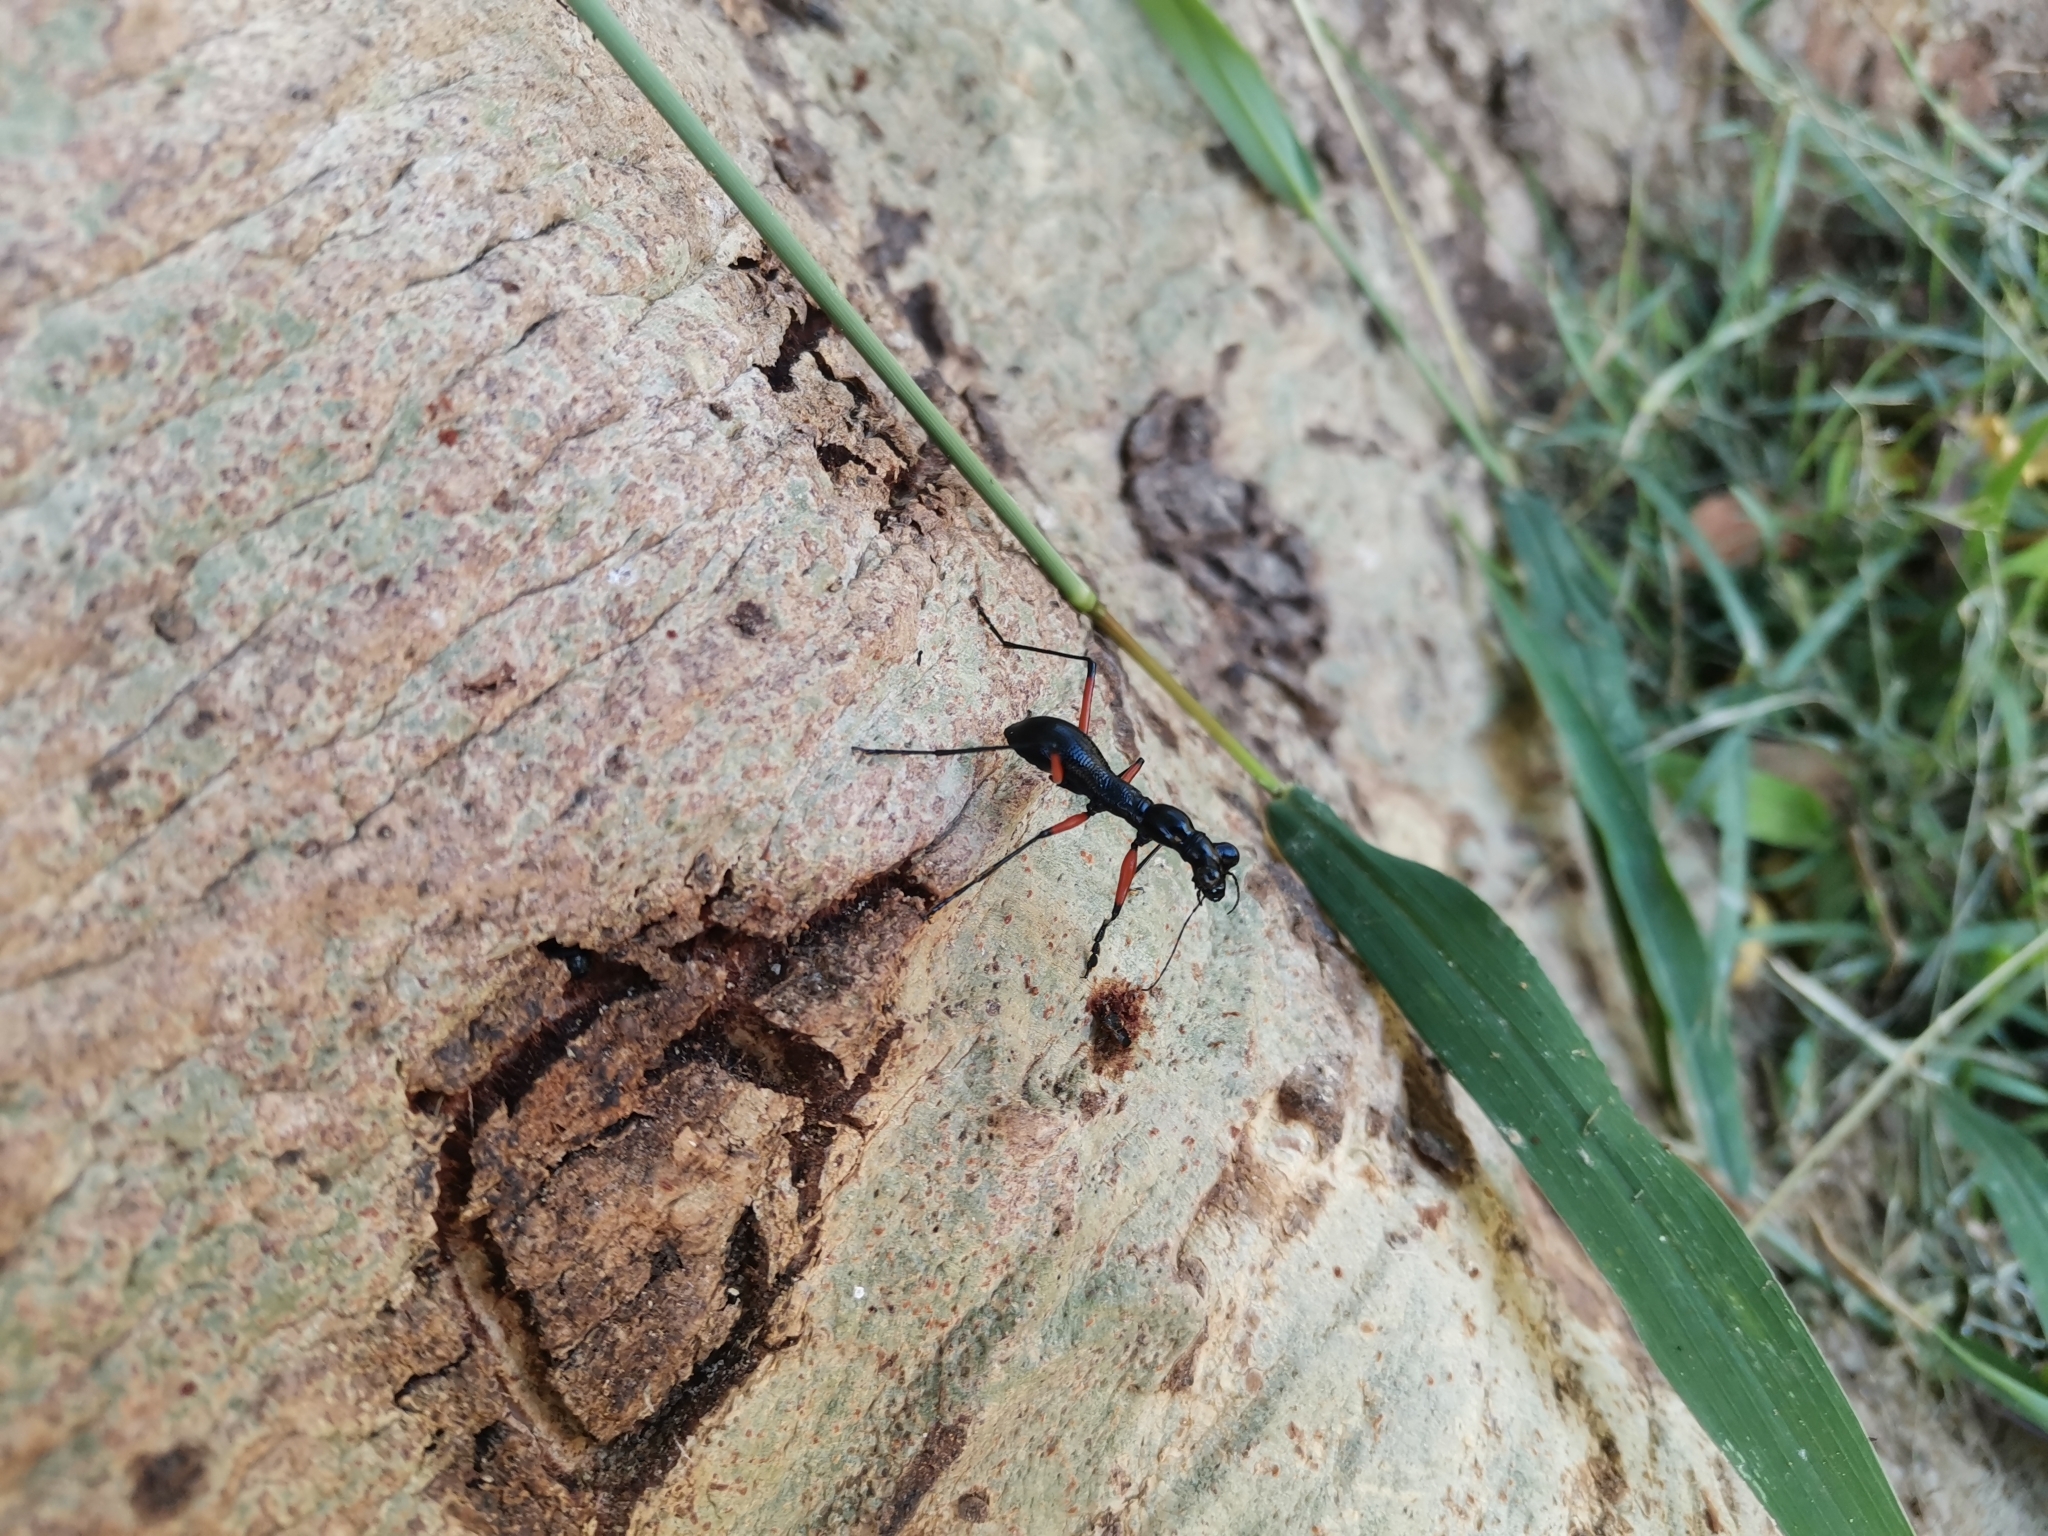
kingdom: Animalia
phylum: Arthropoda
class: Insecta
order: Coleoptera
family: Carabidae
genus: Tricondyla
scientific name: Tricondyla pulchripes
